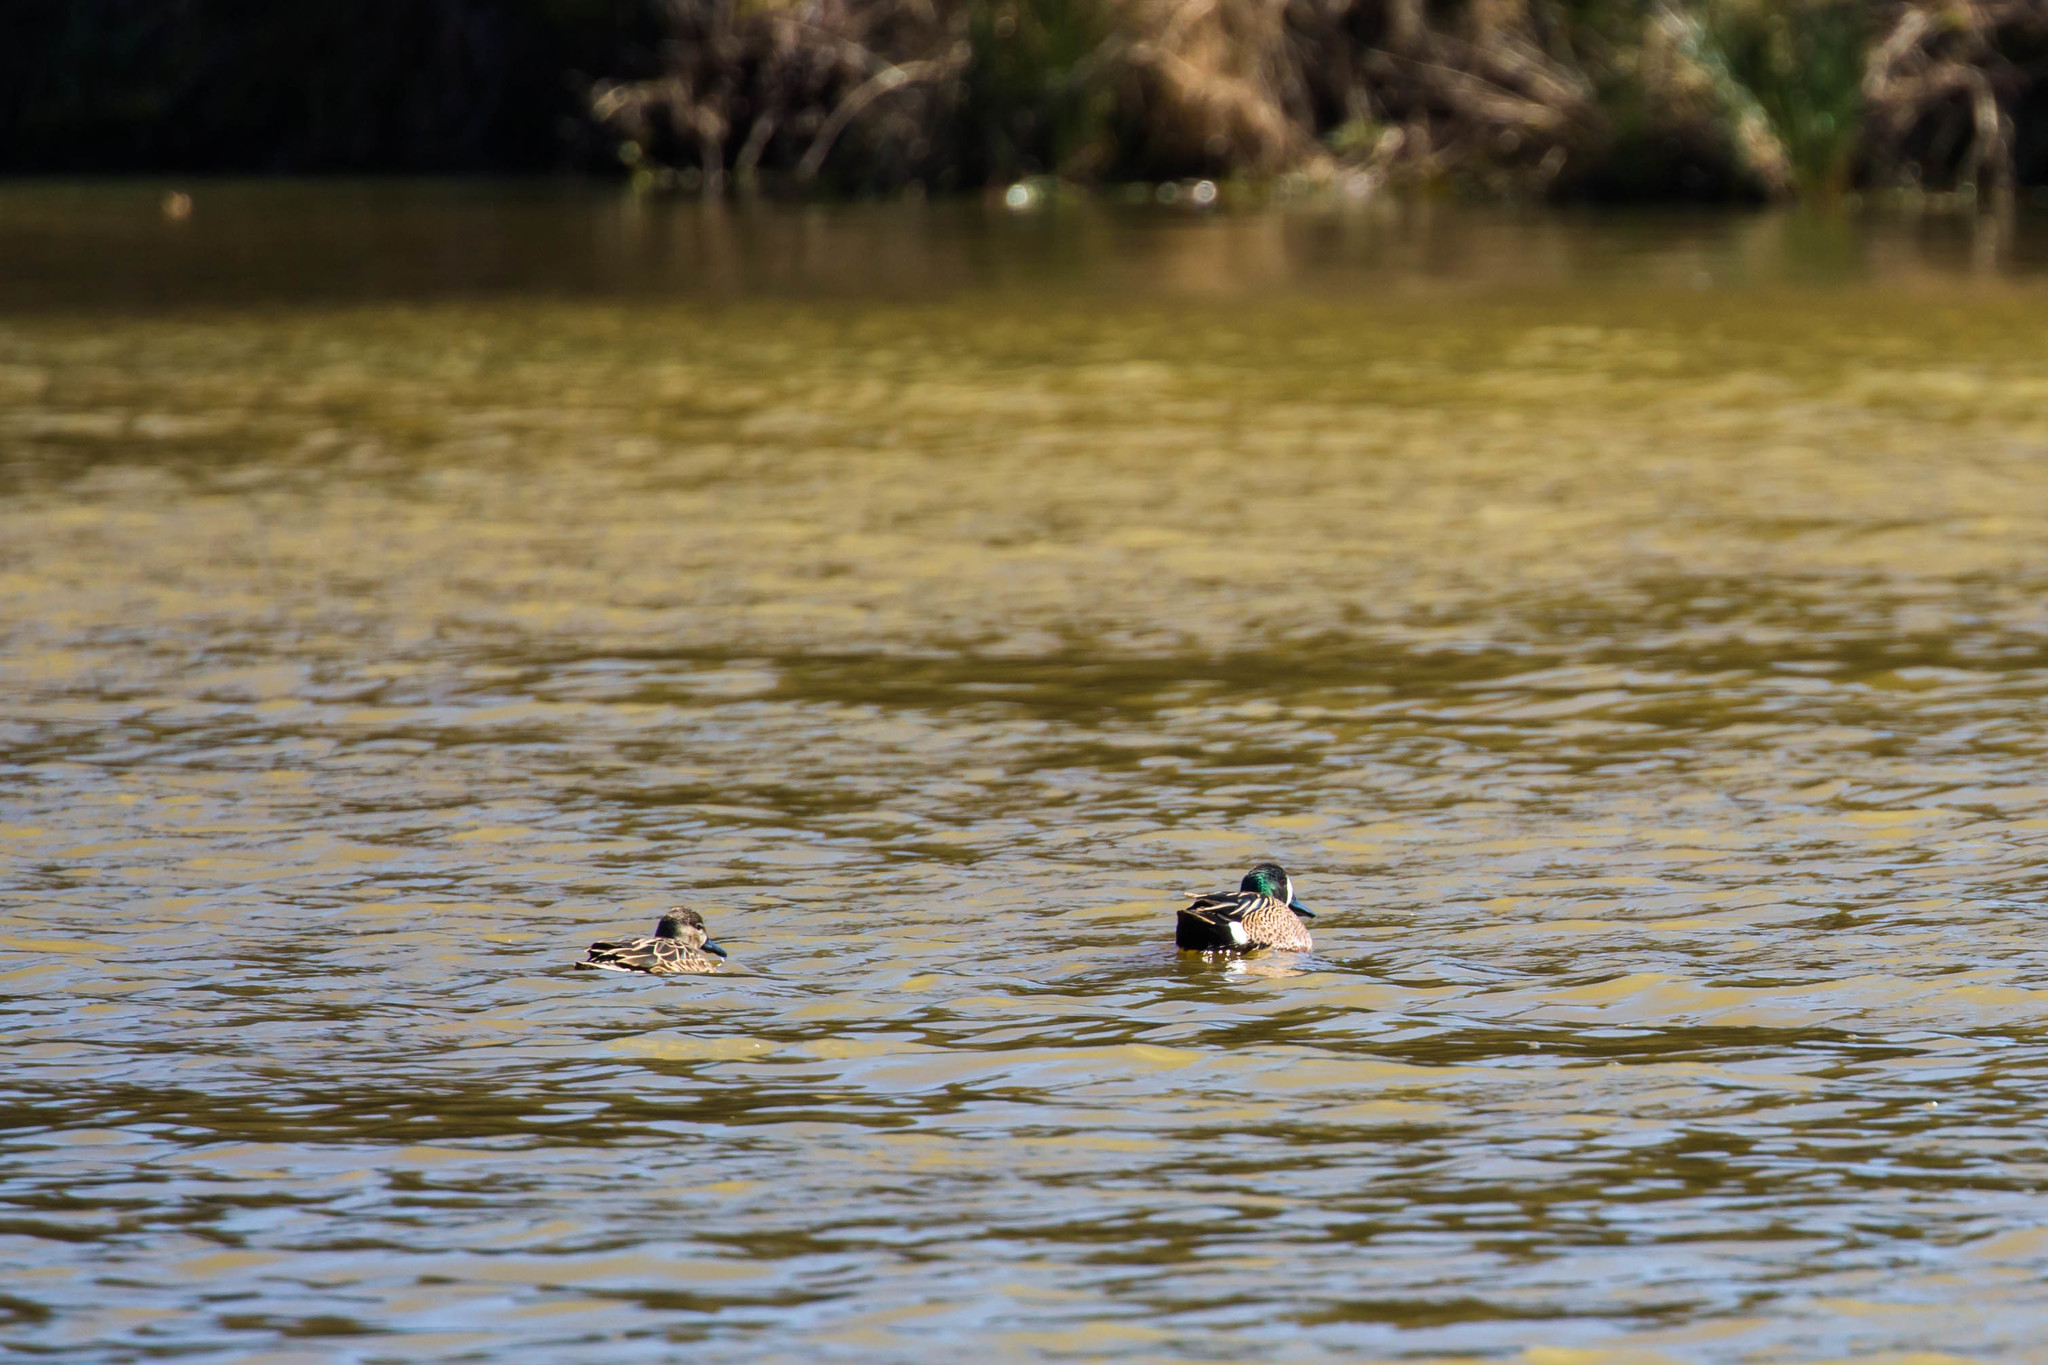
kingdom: Animalia
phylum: Chordata
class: Aves
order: Anseriformes
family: Anatidae
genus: Spatula
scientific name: Spatula discors
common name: Blue-winged teal
